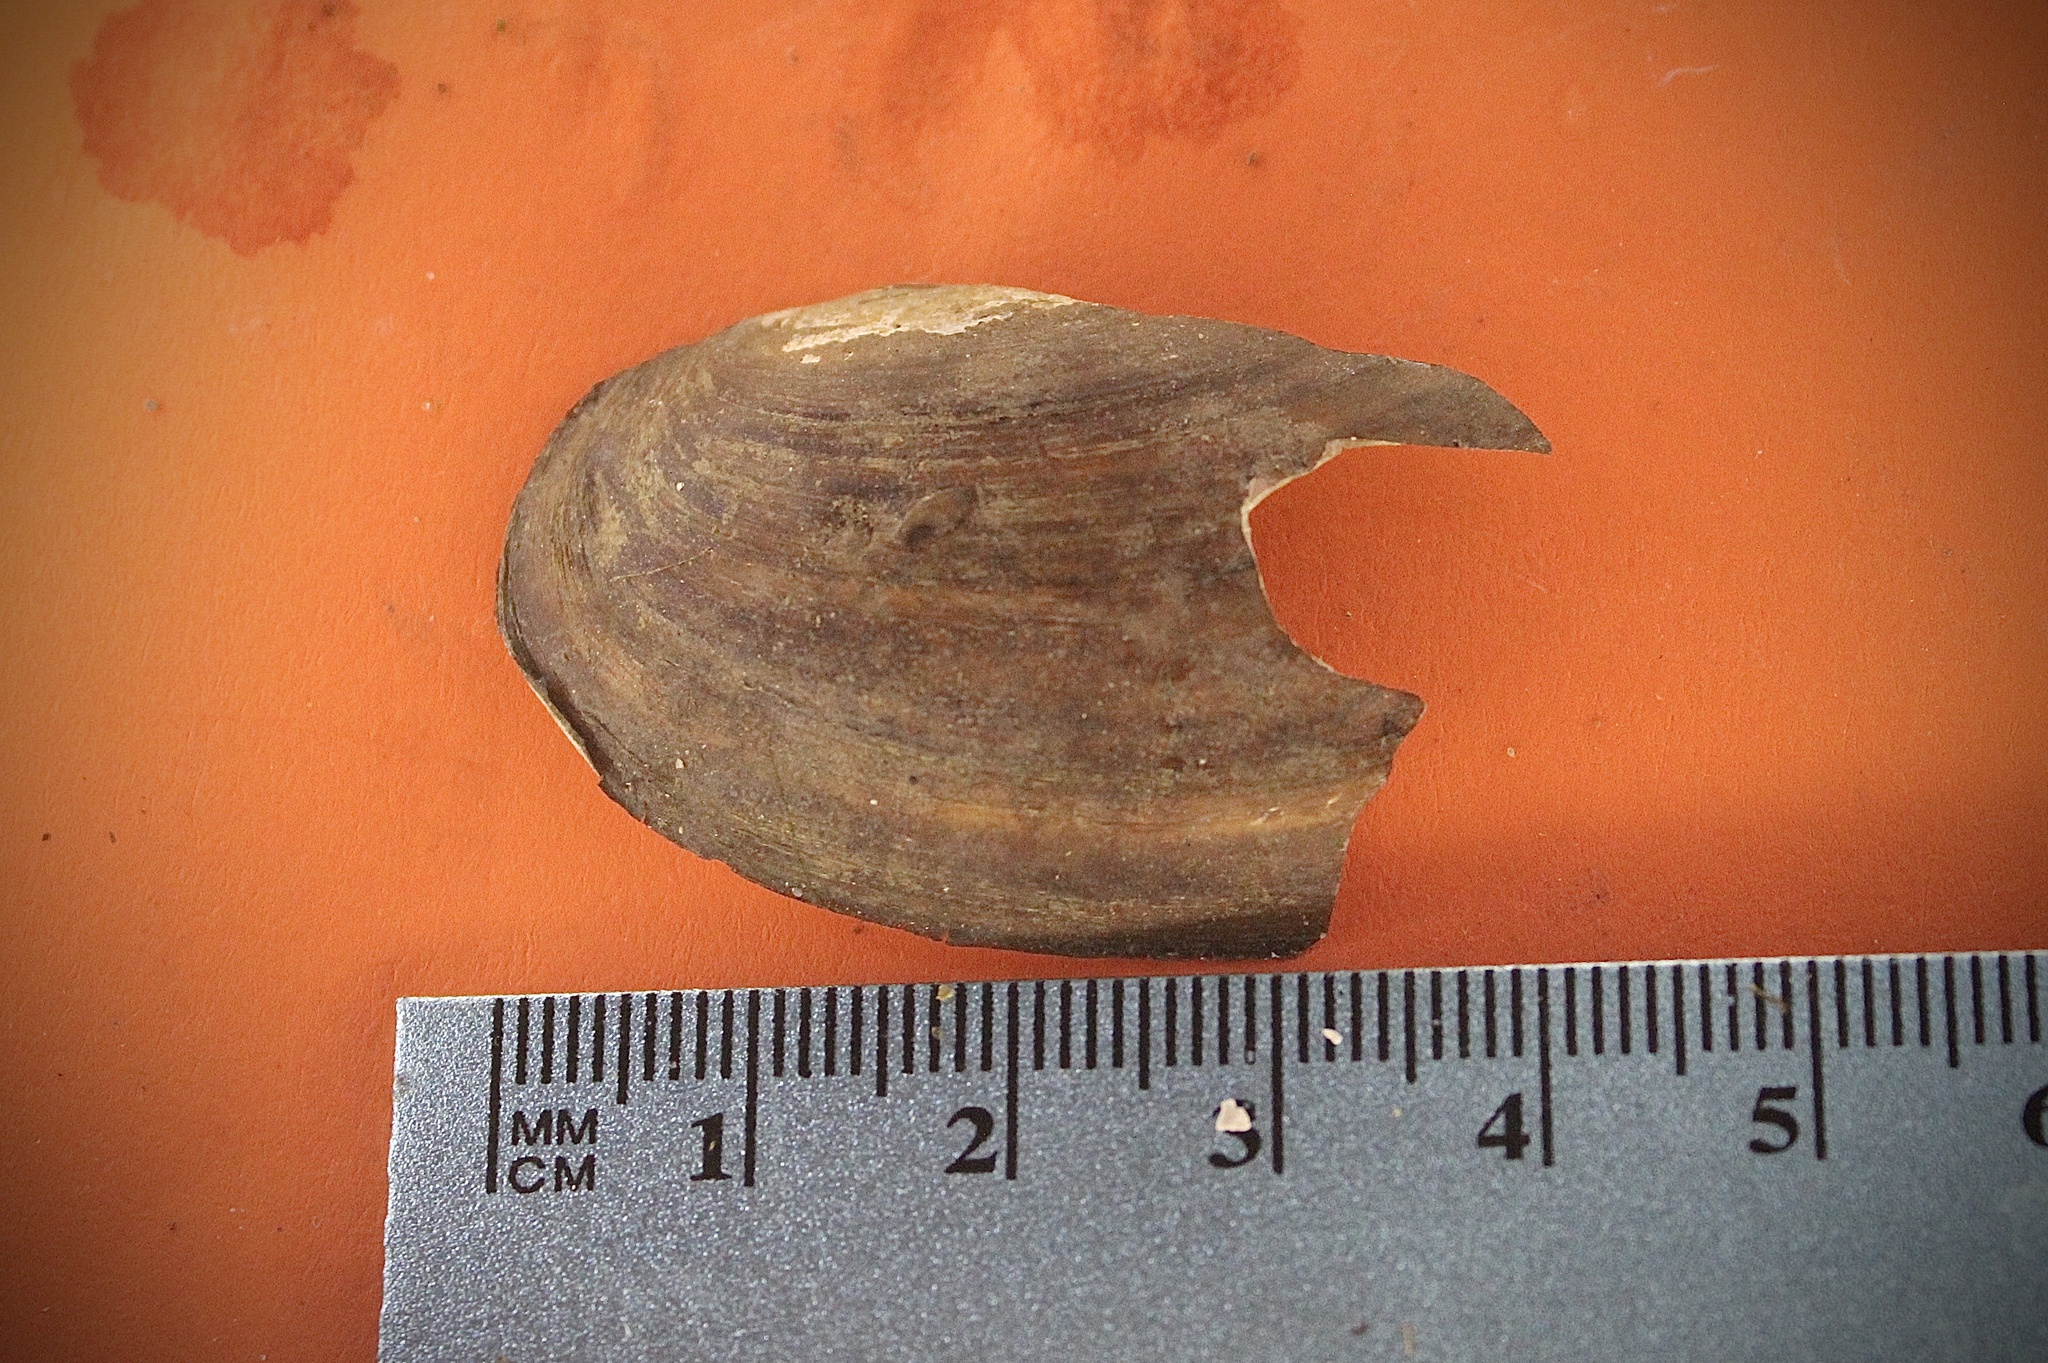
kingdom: Animalia
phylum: Mollusca
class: Bivalvia
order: Unionida
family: Unionidae
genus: Utterbackia
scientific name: Utterbackia imbecillis
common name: Paper pondshell
